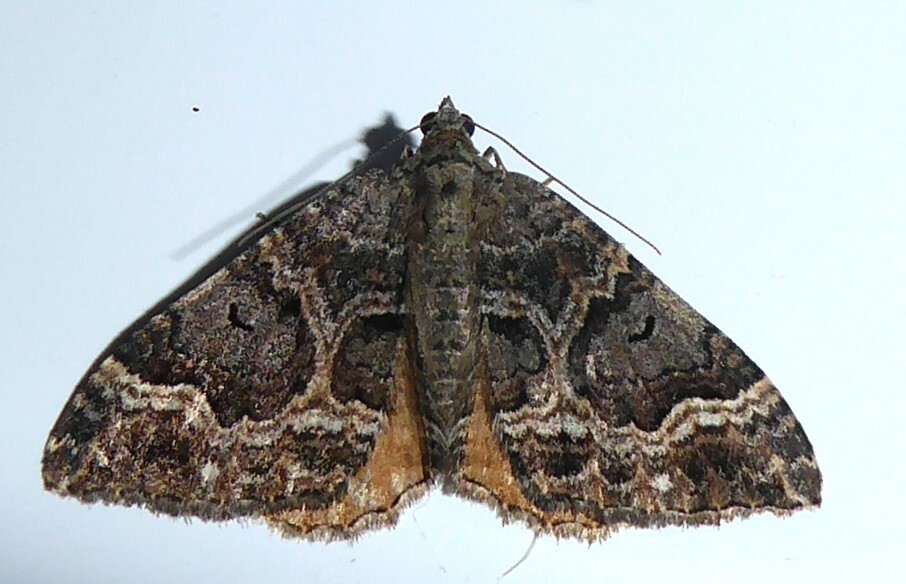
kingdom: Animalia
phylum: Arthropoda
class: Insecta
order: Lepidoptera
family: Geometridae
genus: Hydriomena
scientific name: Hydriomena deltoidata
